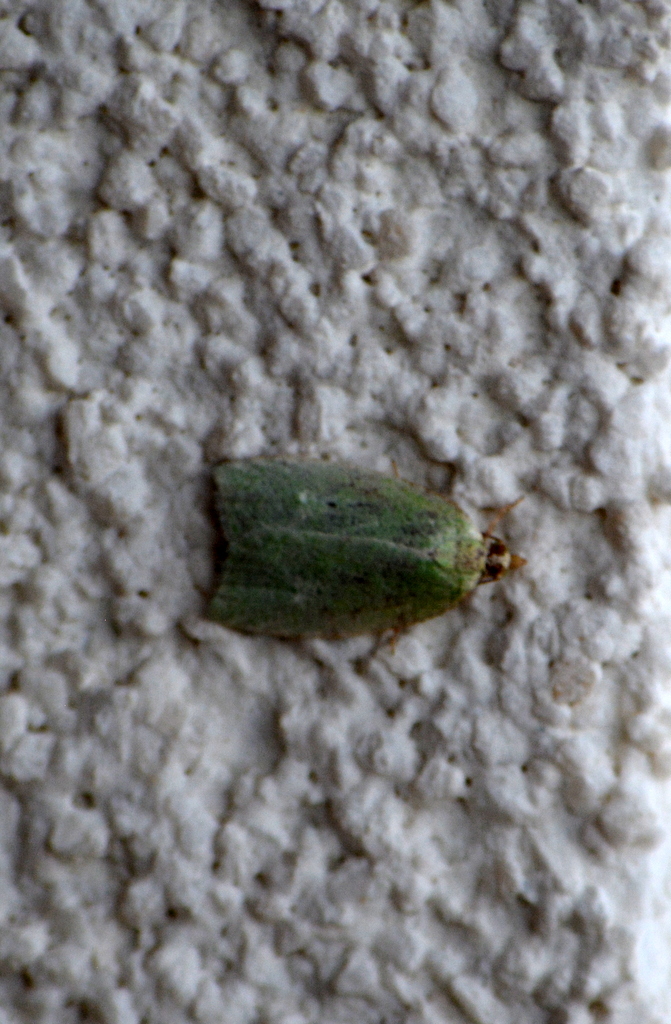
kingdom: Animalia
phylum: Arthropoda
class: Insecta
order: Lepidoptera
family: Tortricidae
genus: Tortrix
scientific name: Tortrix viridana
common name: Green oak tortrix
